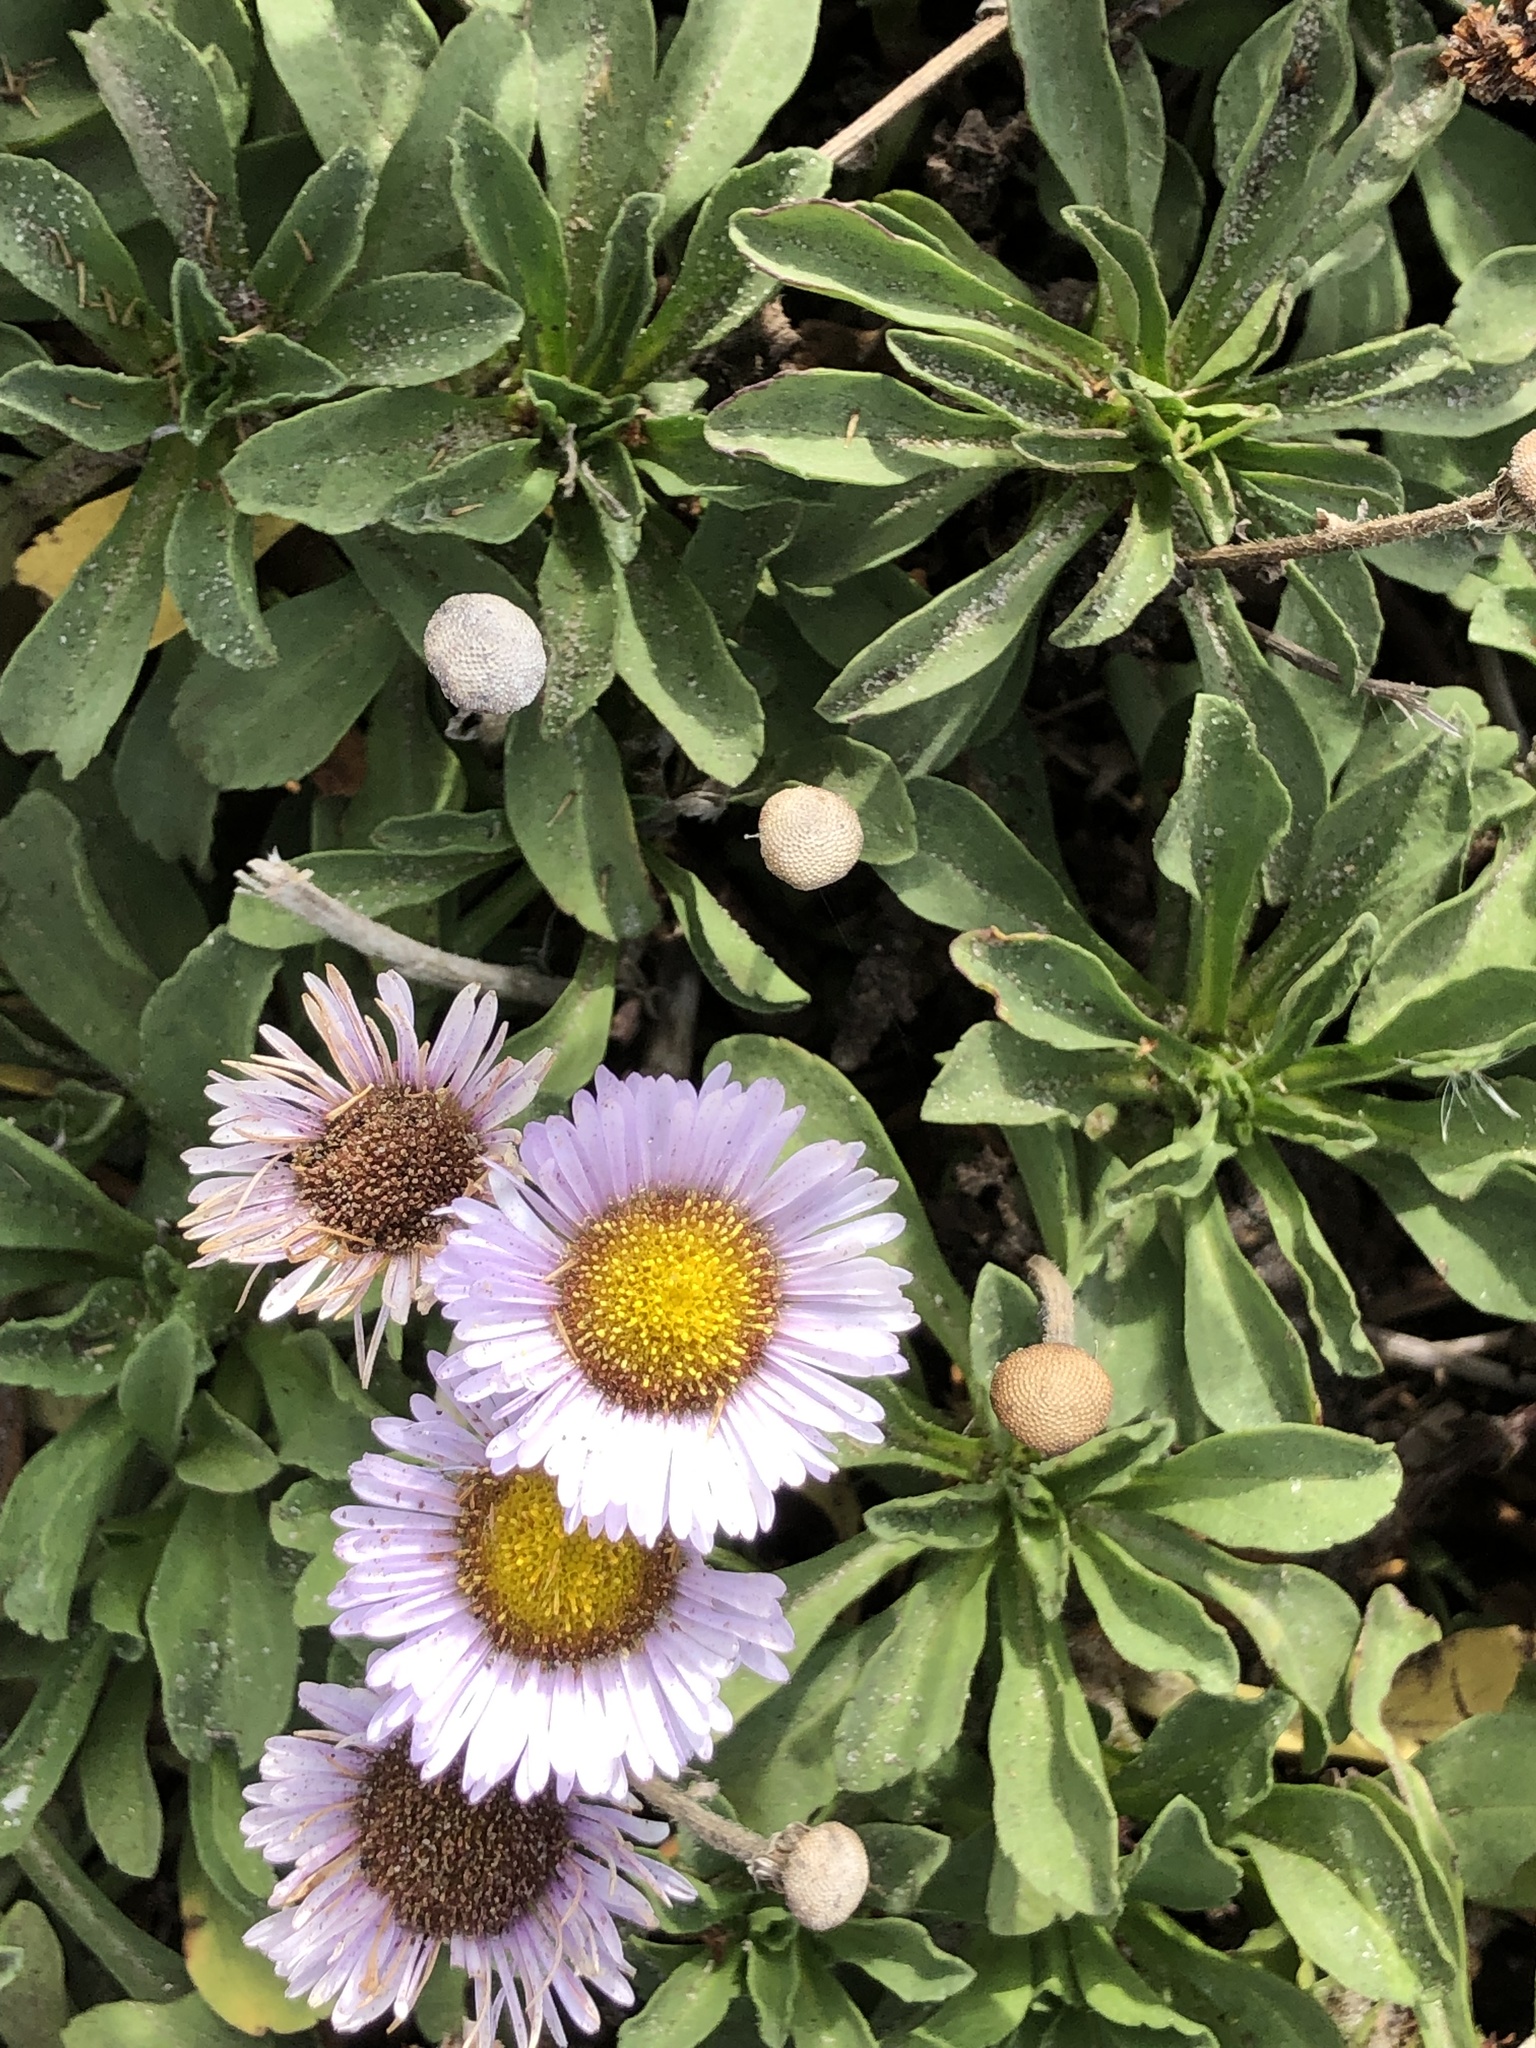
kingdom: Plantae
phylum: Tracheophyta
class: Magnoliopsida
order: Asterales
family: Asteraceae
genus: Erigeron
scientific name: Erigeron glaucus
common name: Seaside daisy
